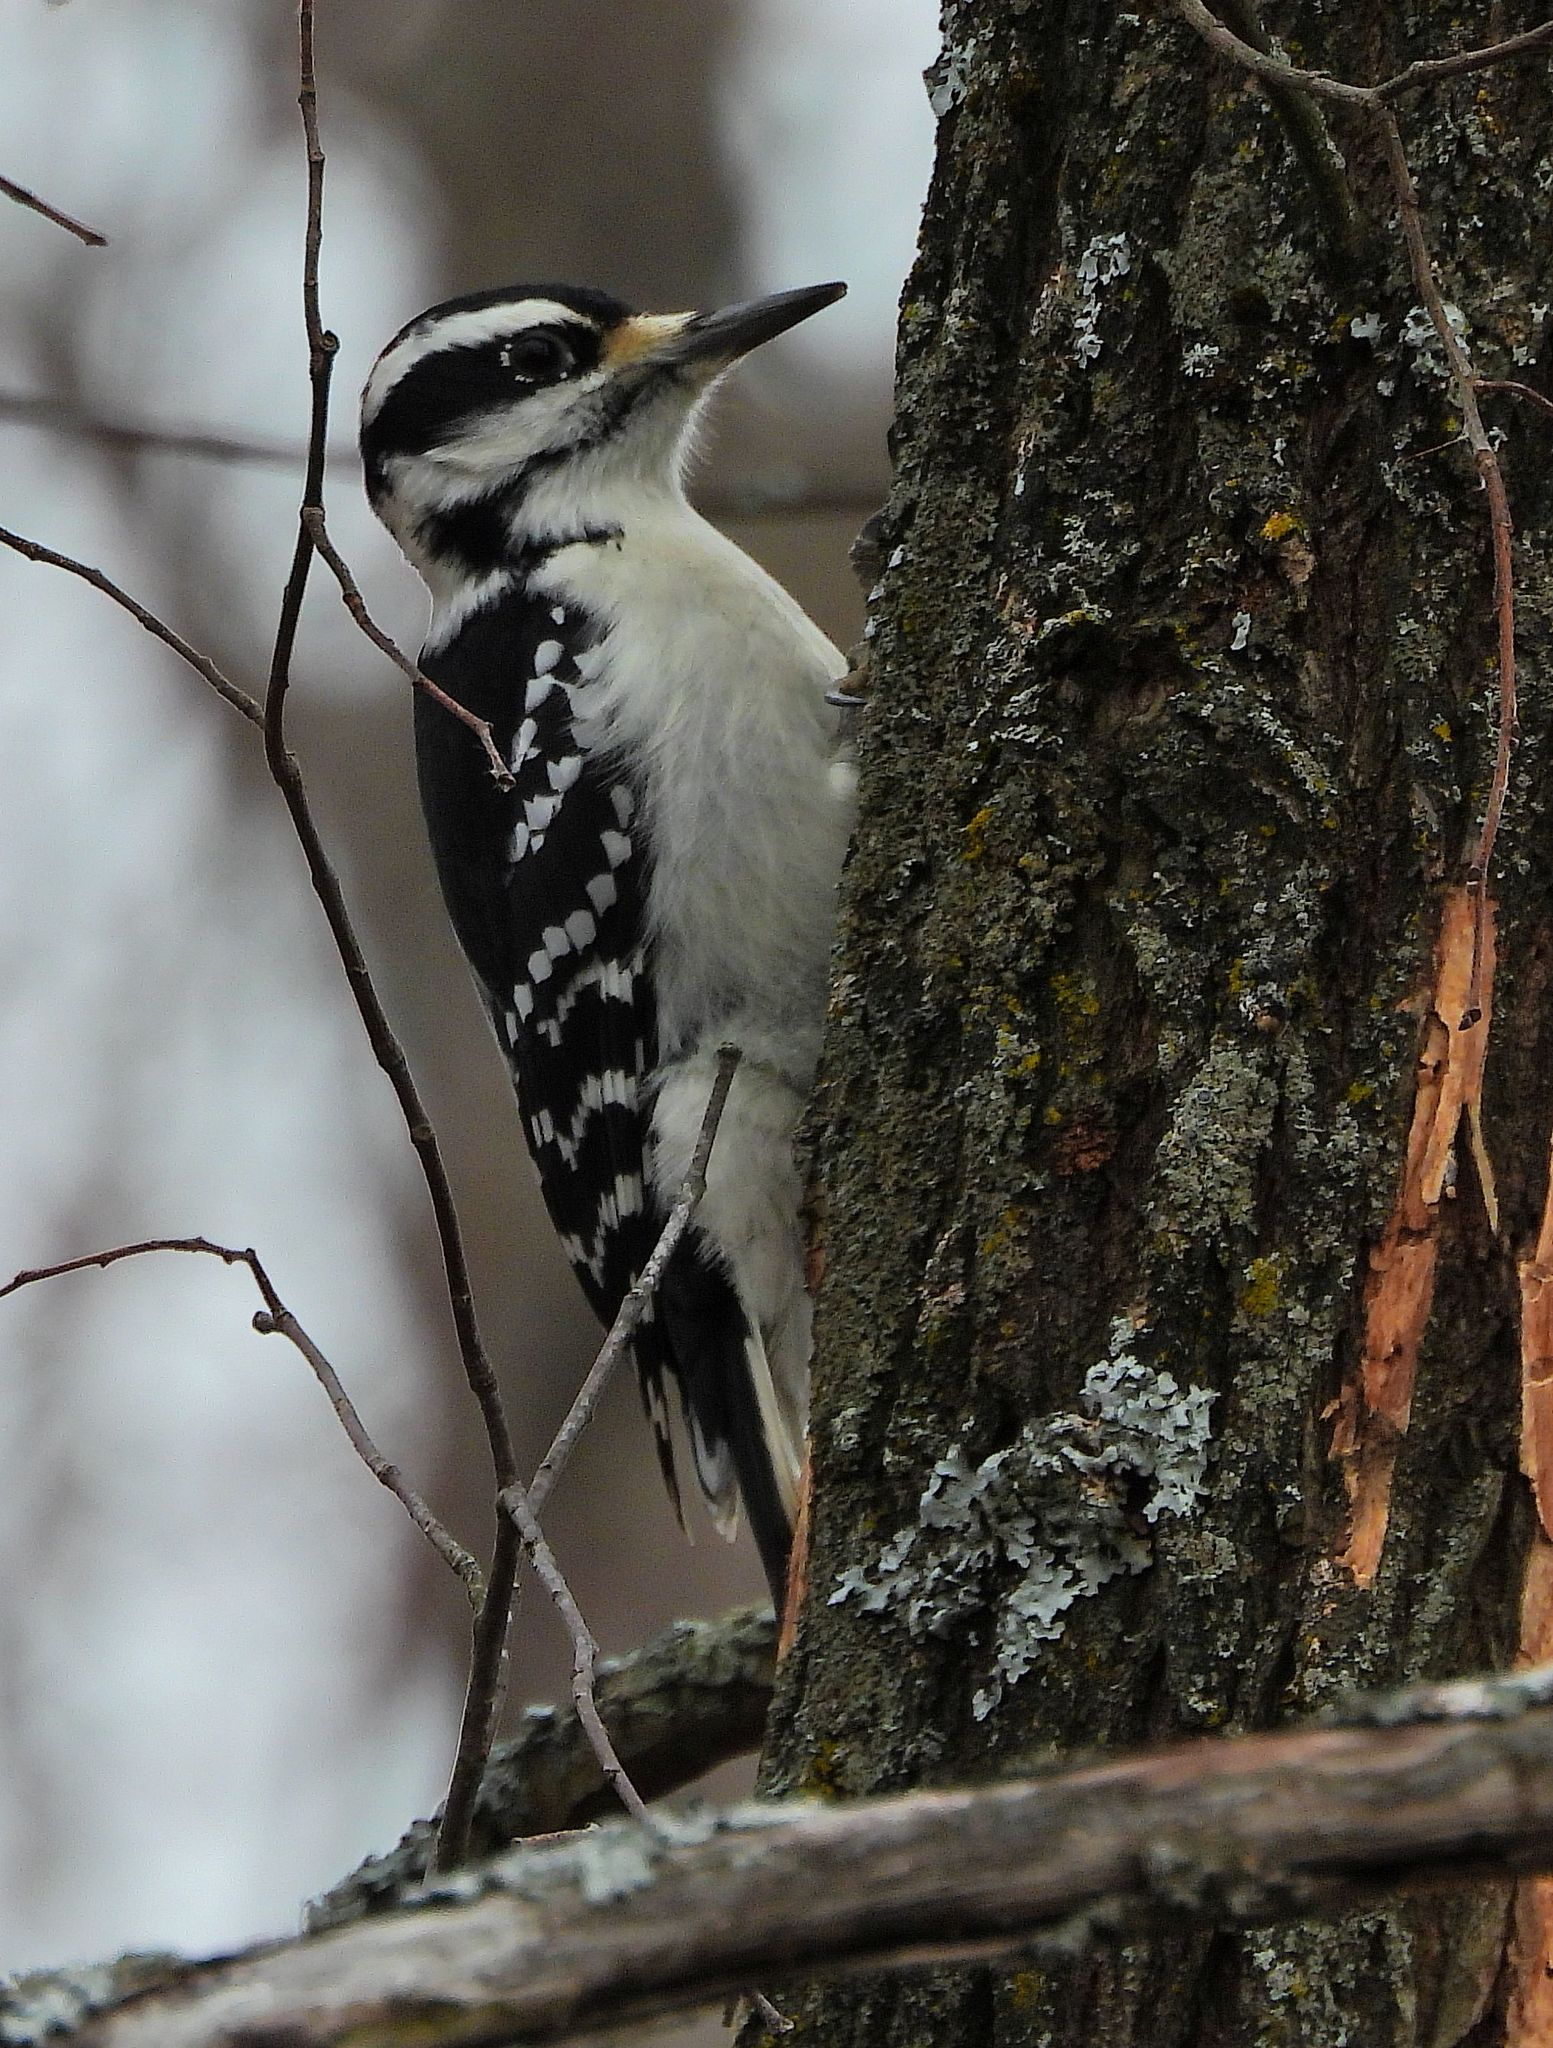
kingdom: Animalia
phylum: Chordata
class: Aves
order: Piciformes
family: Picidae
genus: Leuconotopicus
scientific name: Leuconotopicus villosus
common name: Hairy woodpecker
